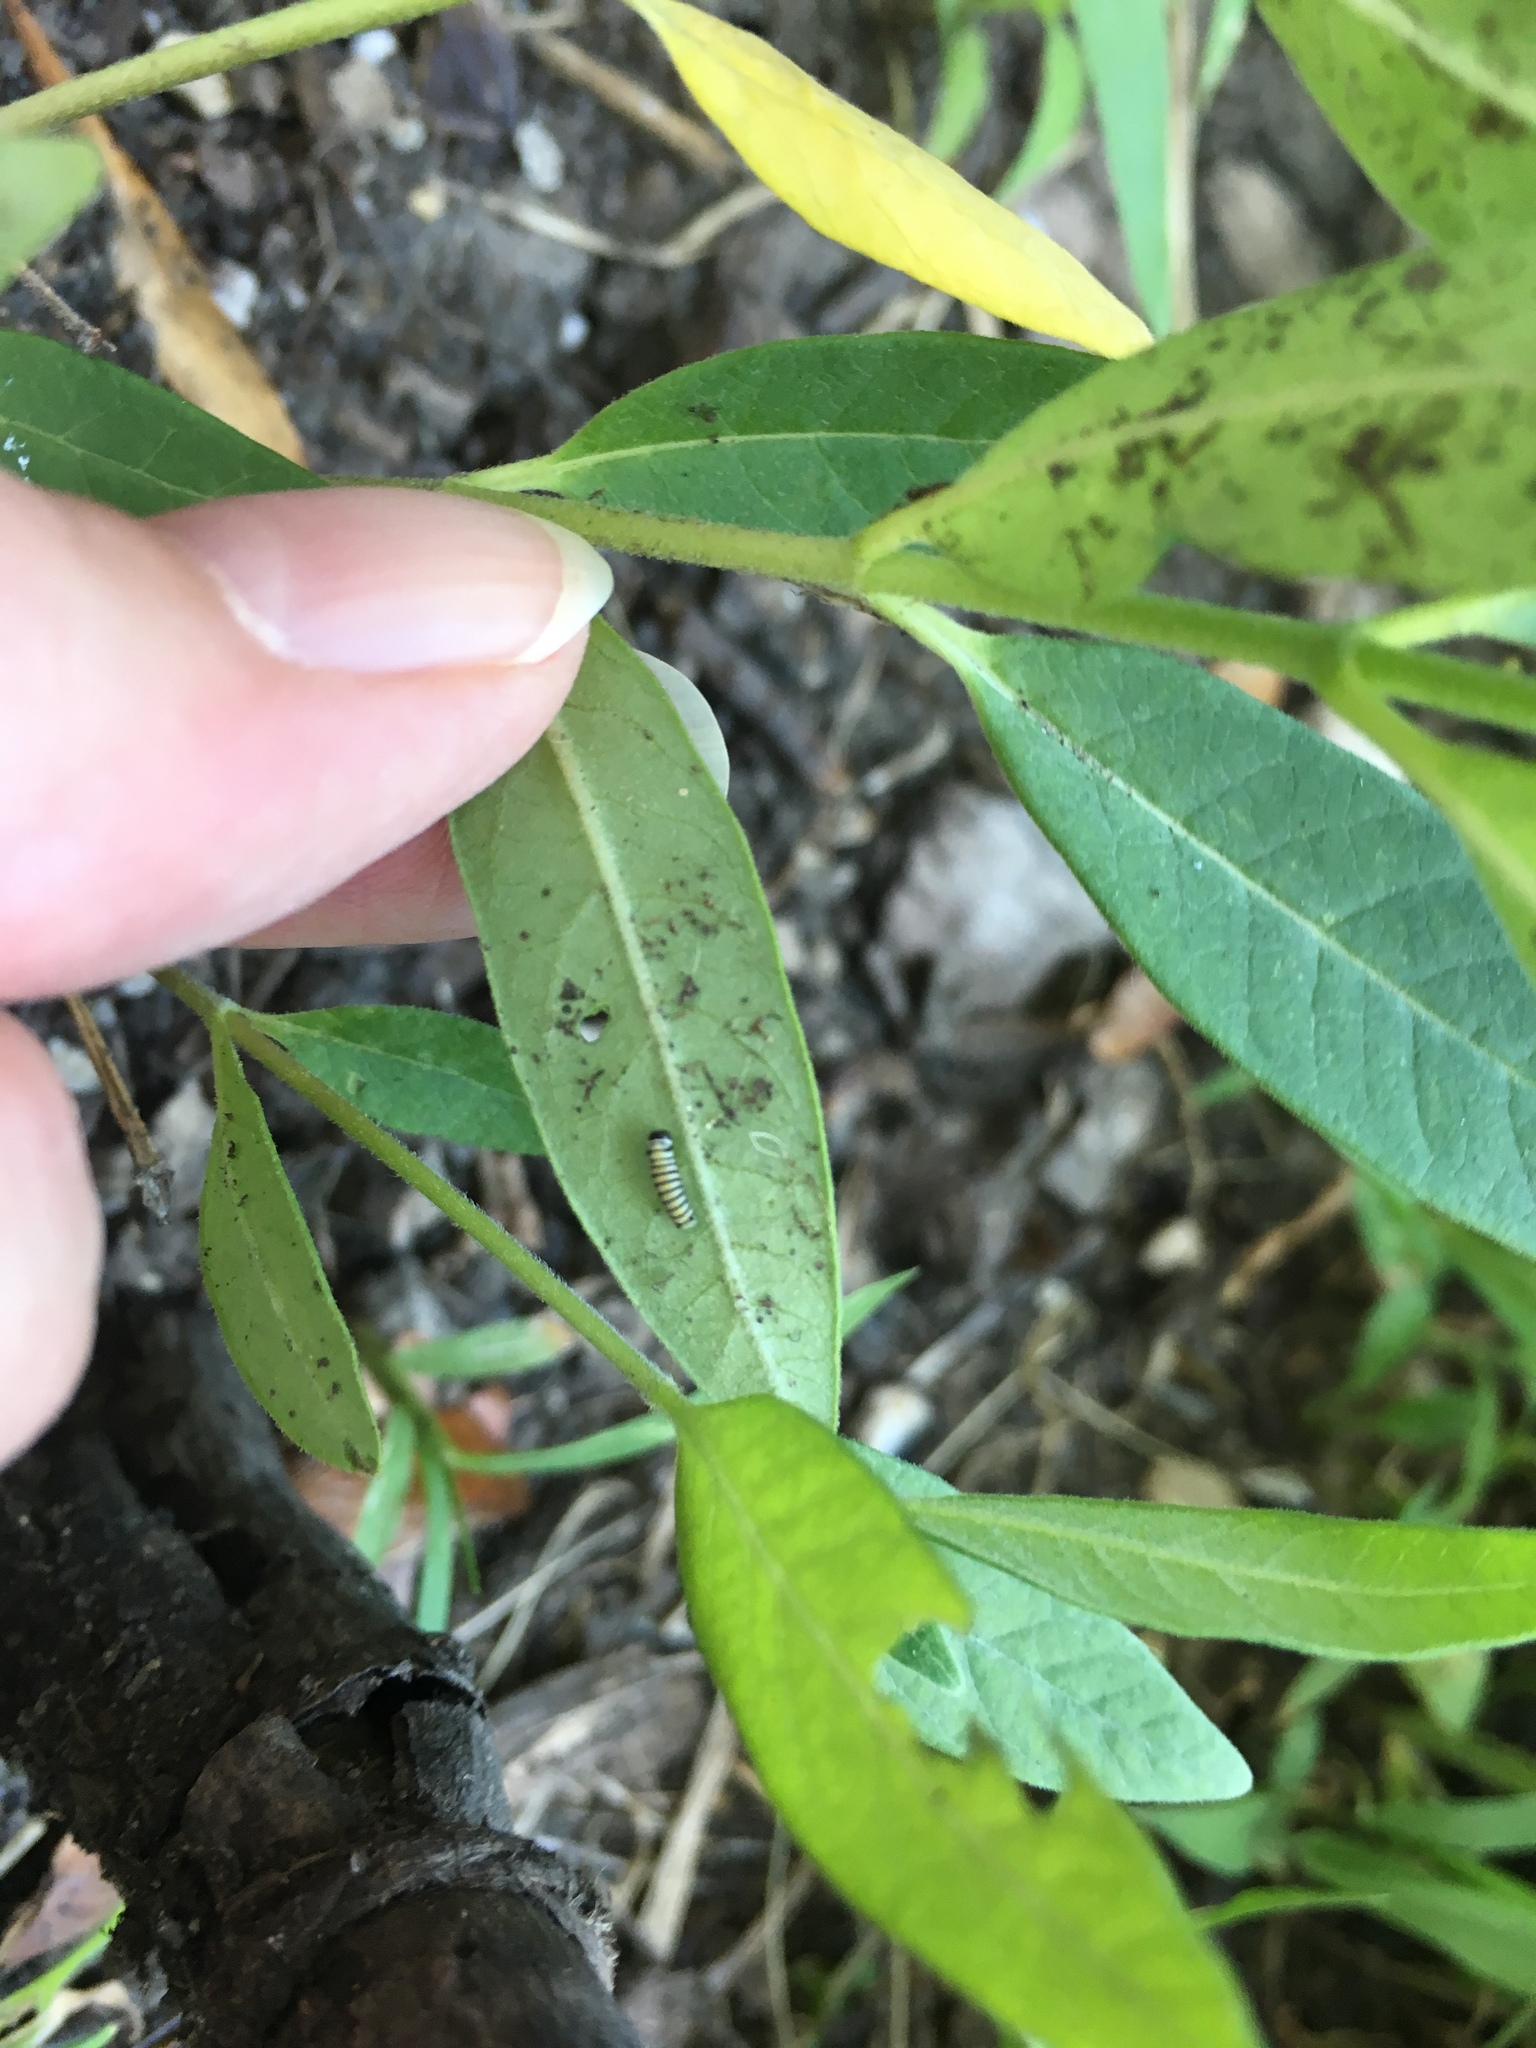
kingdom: Animalia
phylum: Arthropoda
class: Insecta
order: Lepidoptera
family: Nymphalidae
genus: Danaus
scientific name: Danaus plexippus
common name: Monarch
